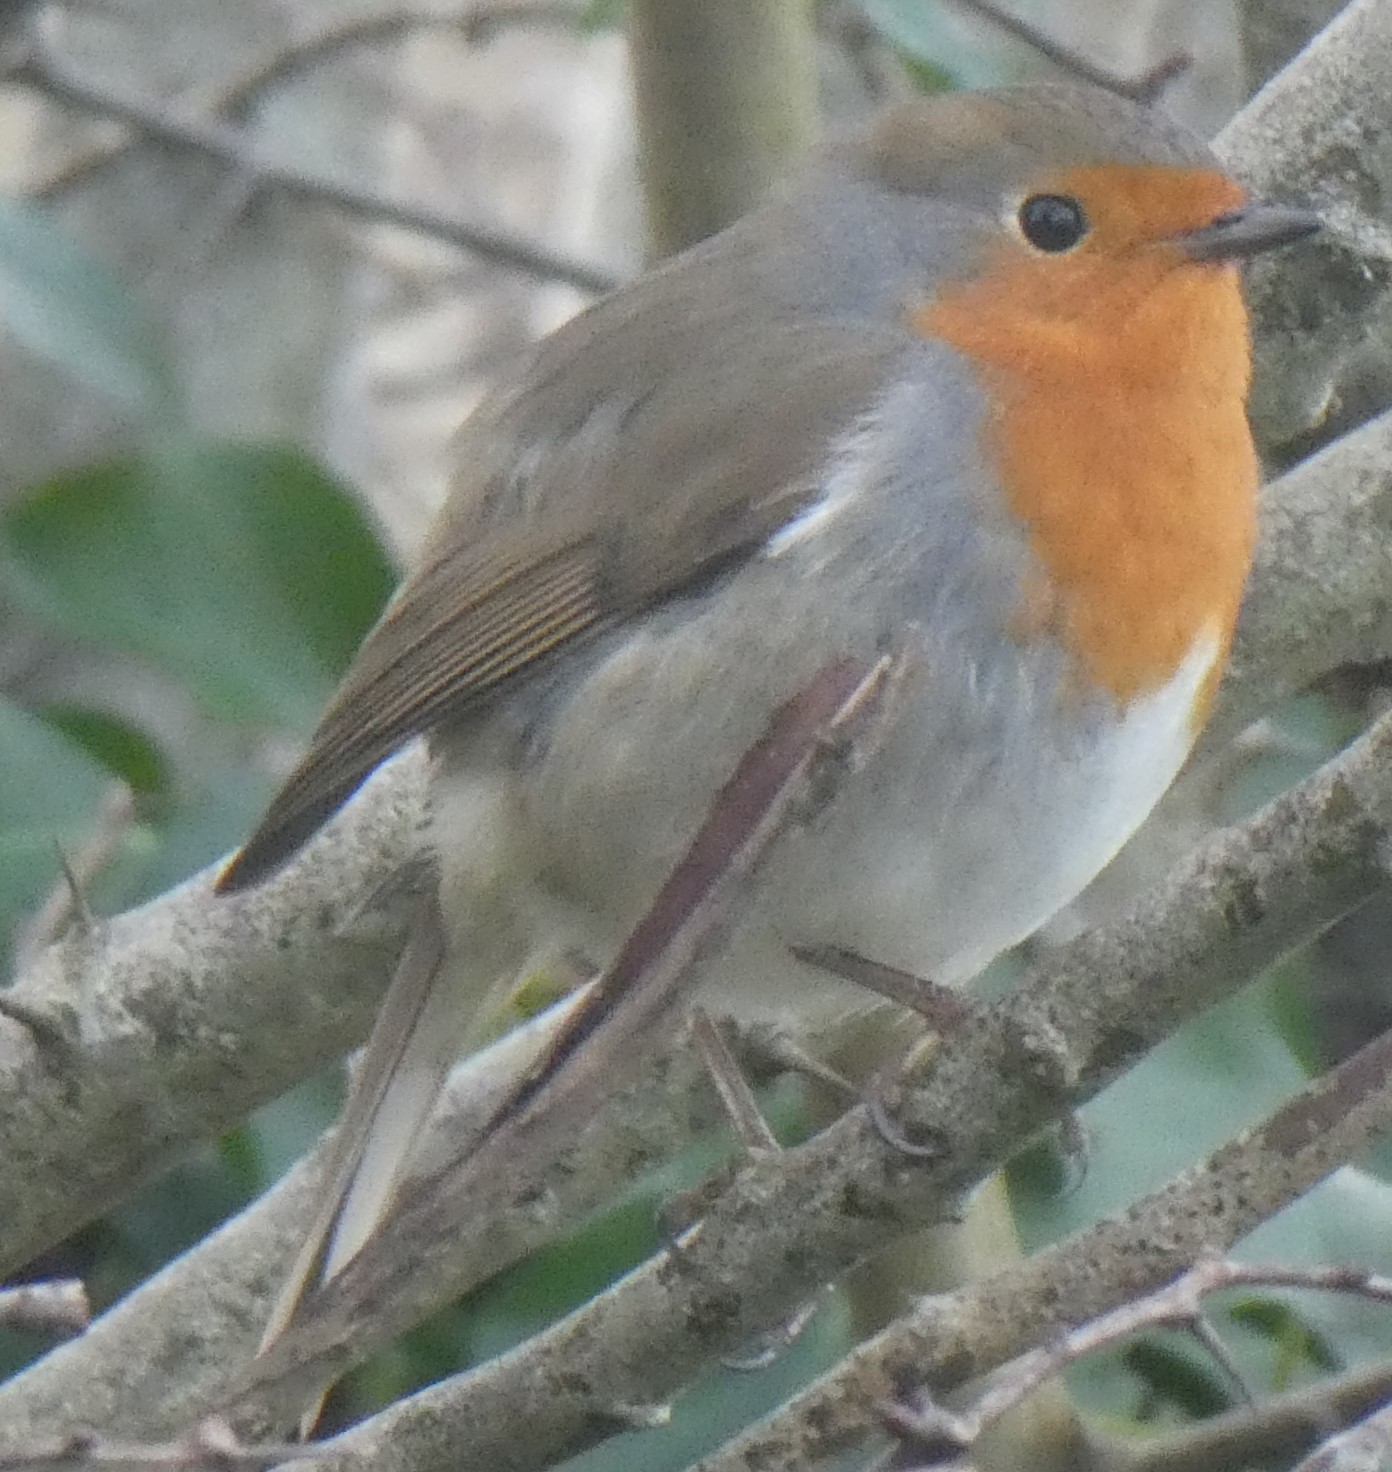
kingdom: Animalia
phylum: Chordata
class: Aves
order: Passeriformes
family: Muscicapidae
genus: Erithacus
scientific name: Erithacus rubecula
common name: European robin
